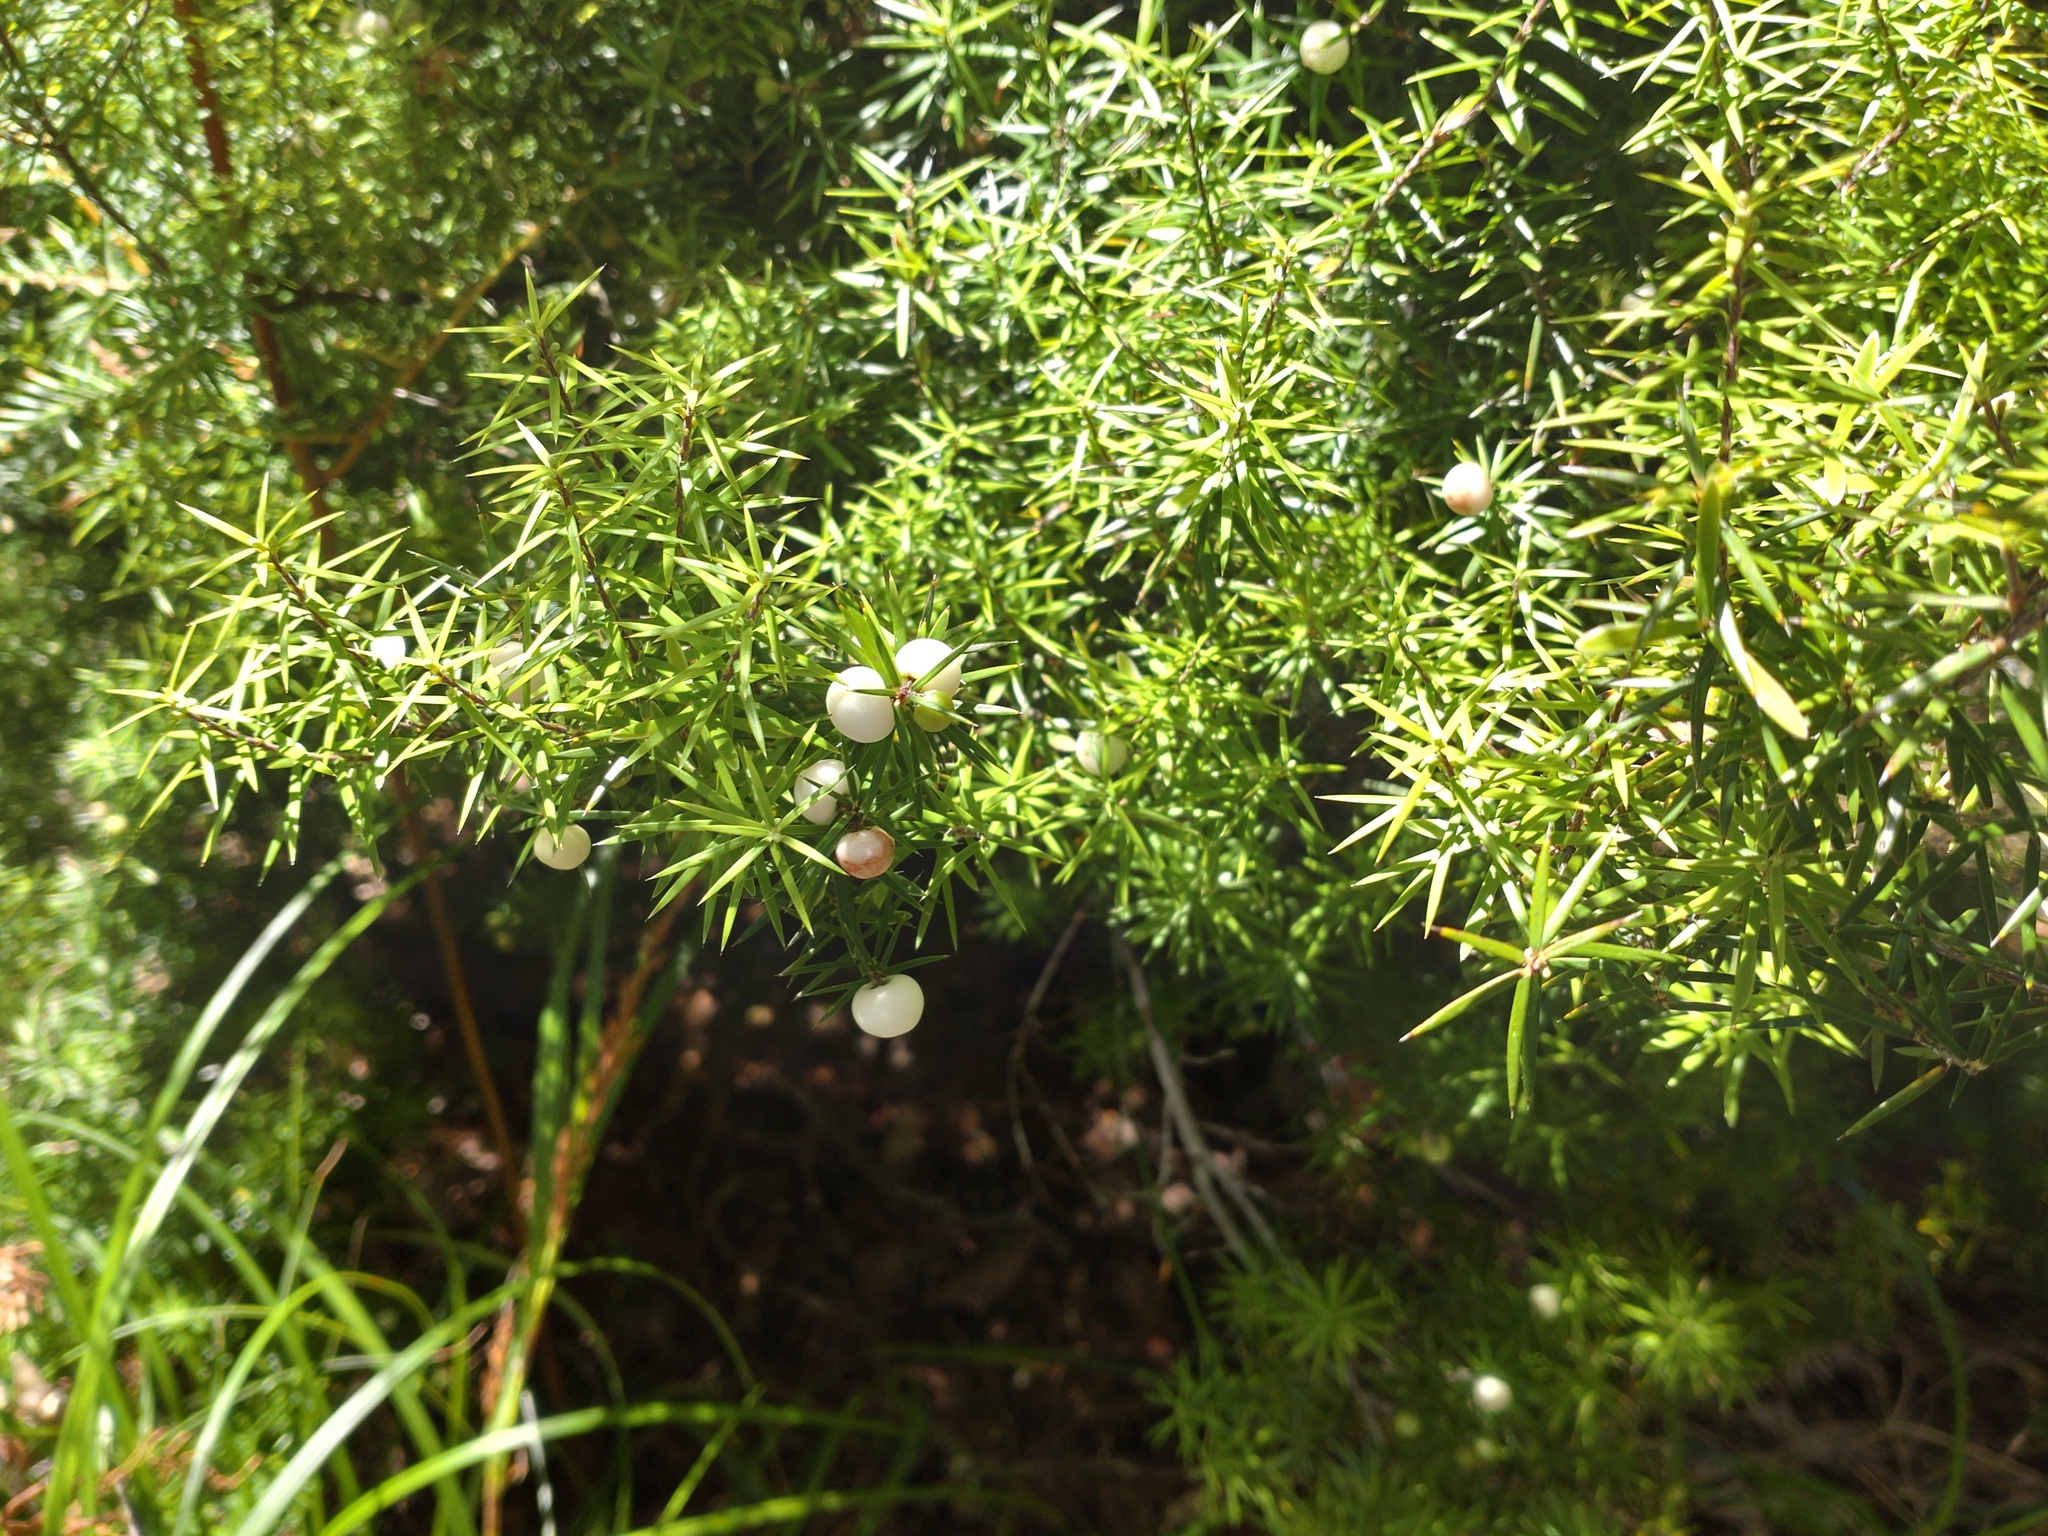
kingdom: Plantae
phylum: Tracheophyta
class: Magnoliopsida
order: Ericales
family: Ericaceae
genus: Leptecophylla
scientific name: Leptecophylla juniperina
